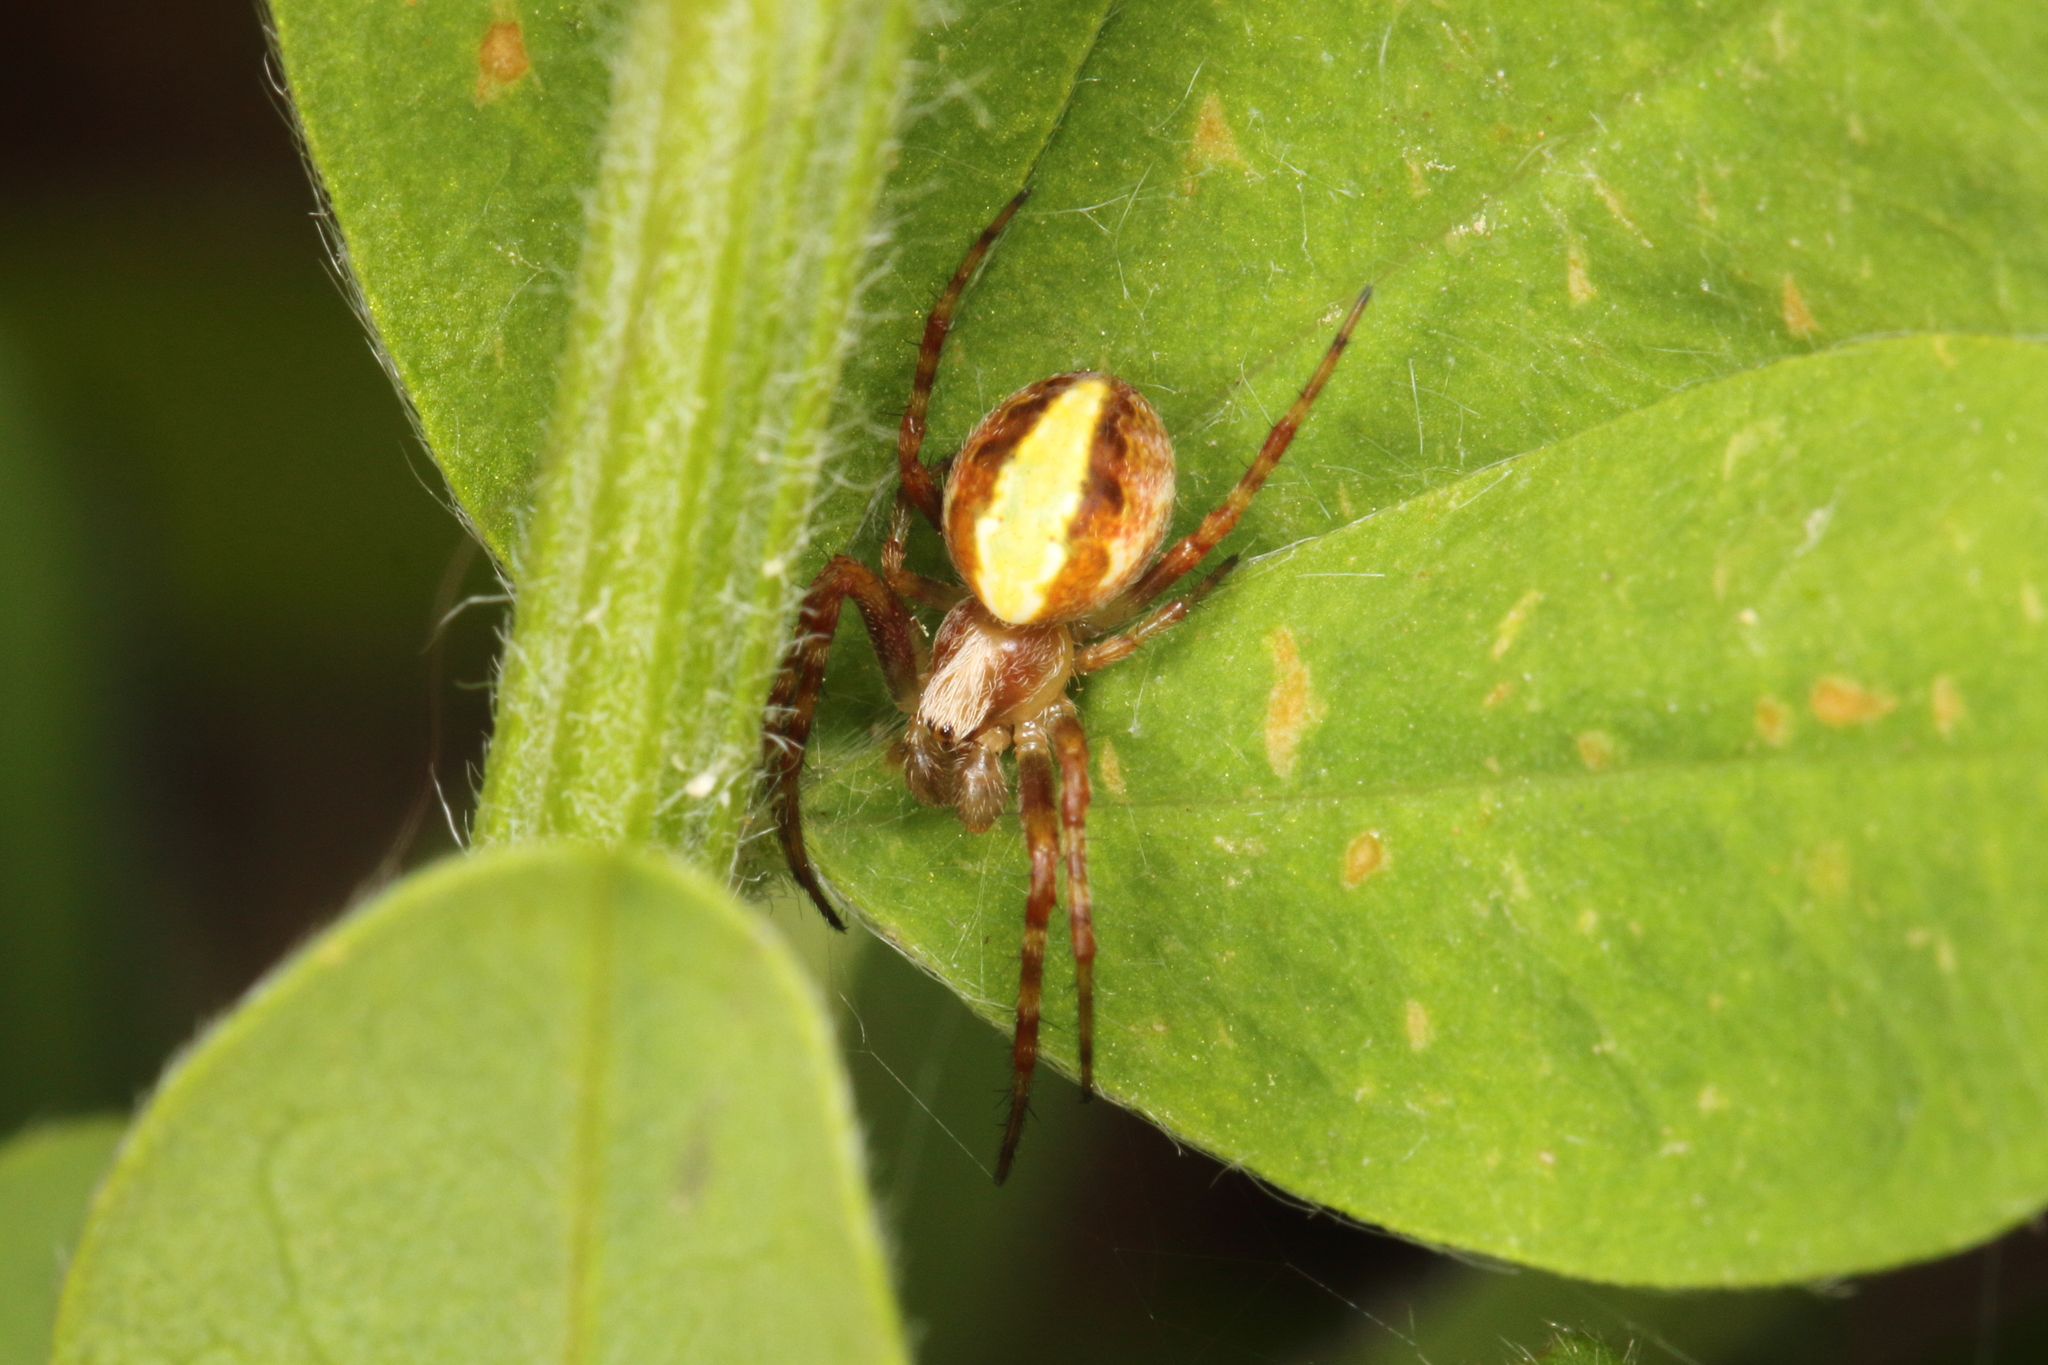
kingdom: Animalia
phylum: Arthropoda
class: Arachnida
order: Araneae
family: Araneidae
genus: Novaranea
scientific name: Novaranea queribunda
